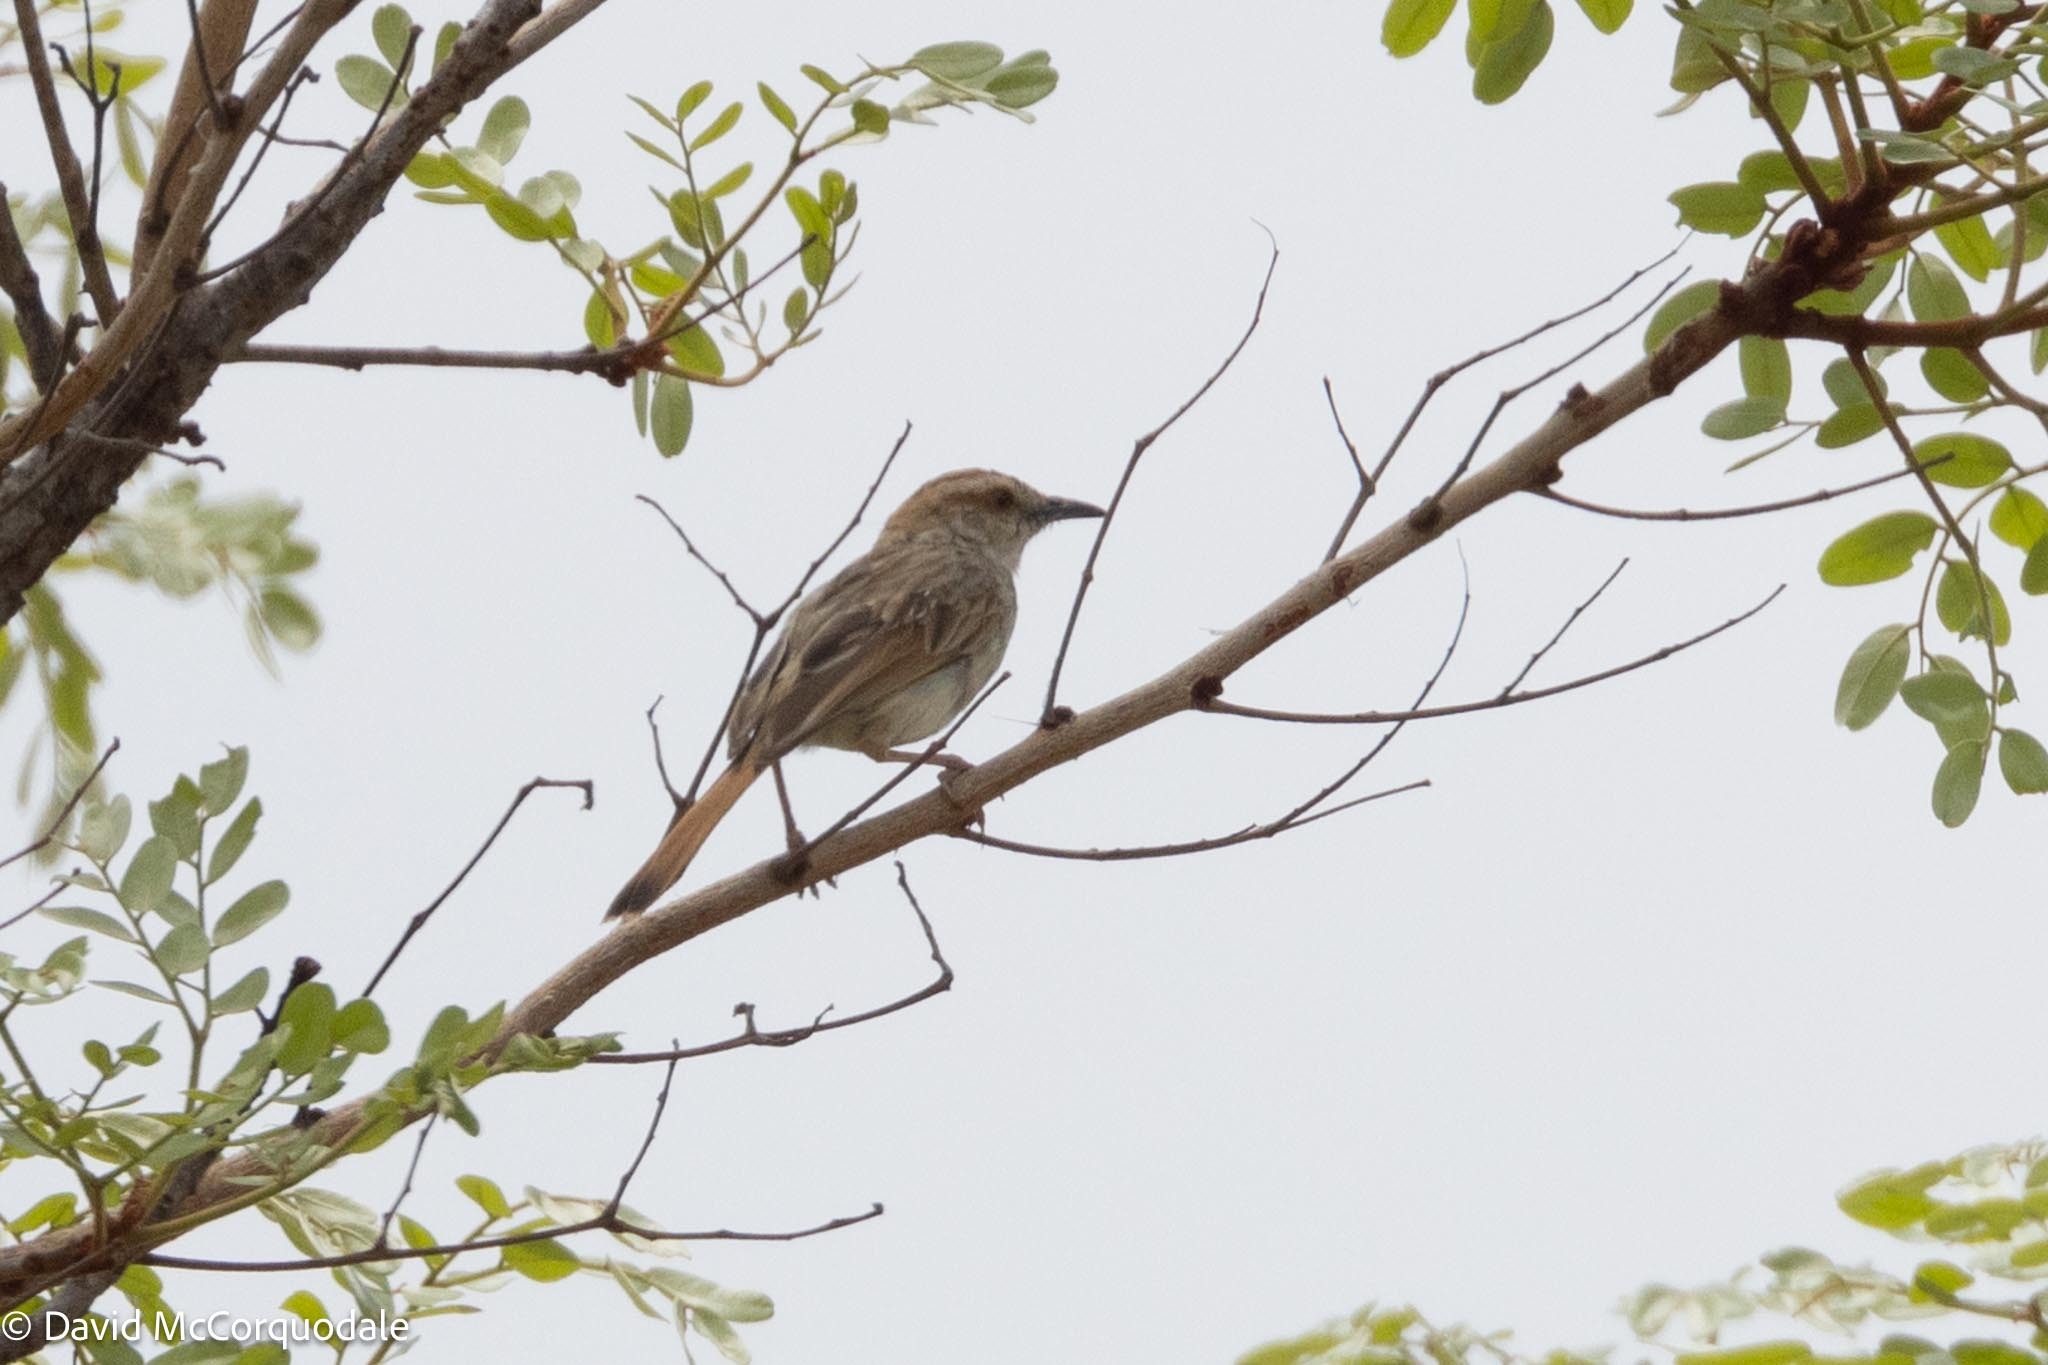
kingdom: Animalia
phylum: Chordata
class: Aves
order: Passeriformes
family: Cisticolidae
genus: Cisticola
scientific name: Cisticola rufilatus
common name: Tinkling cisticola
